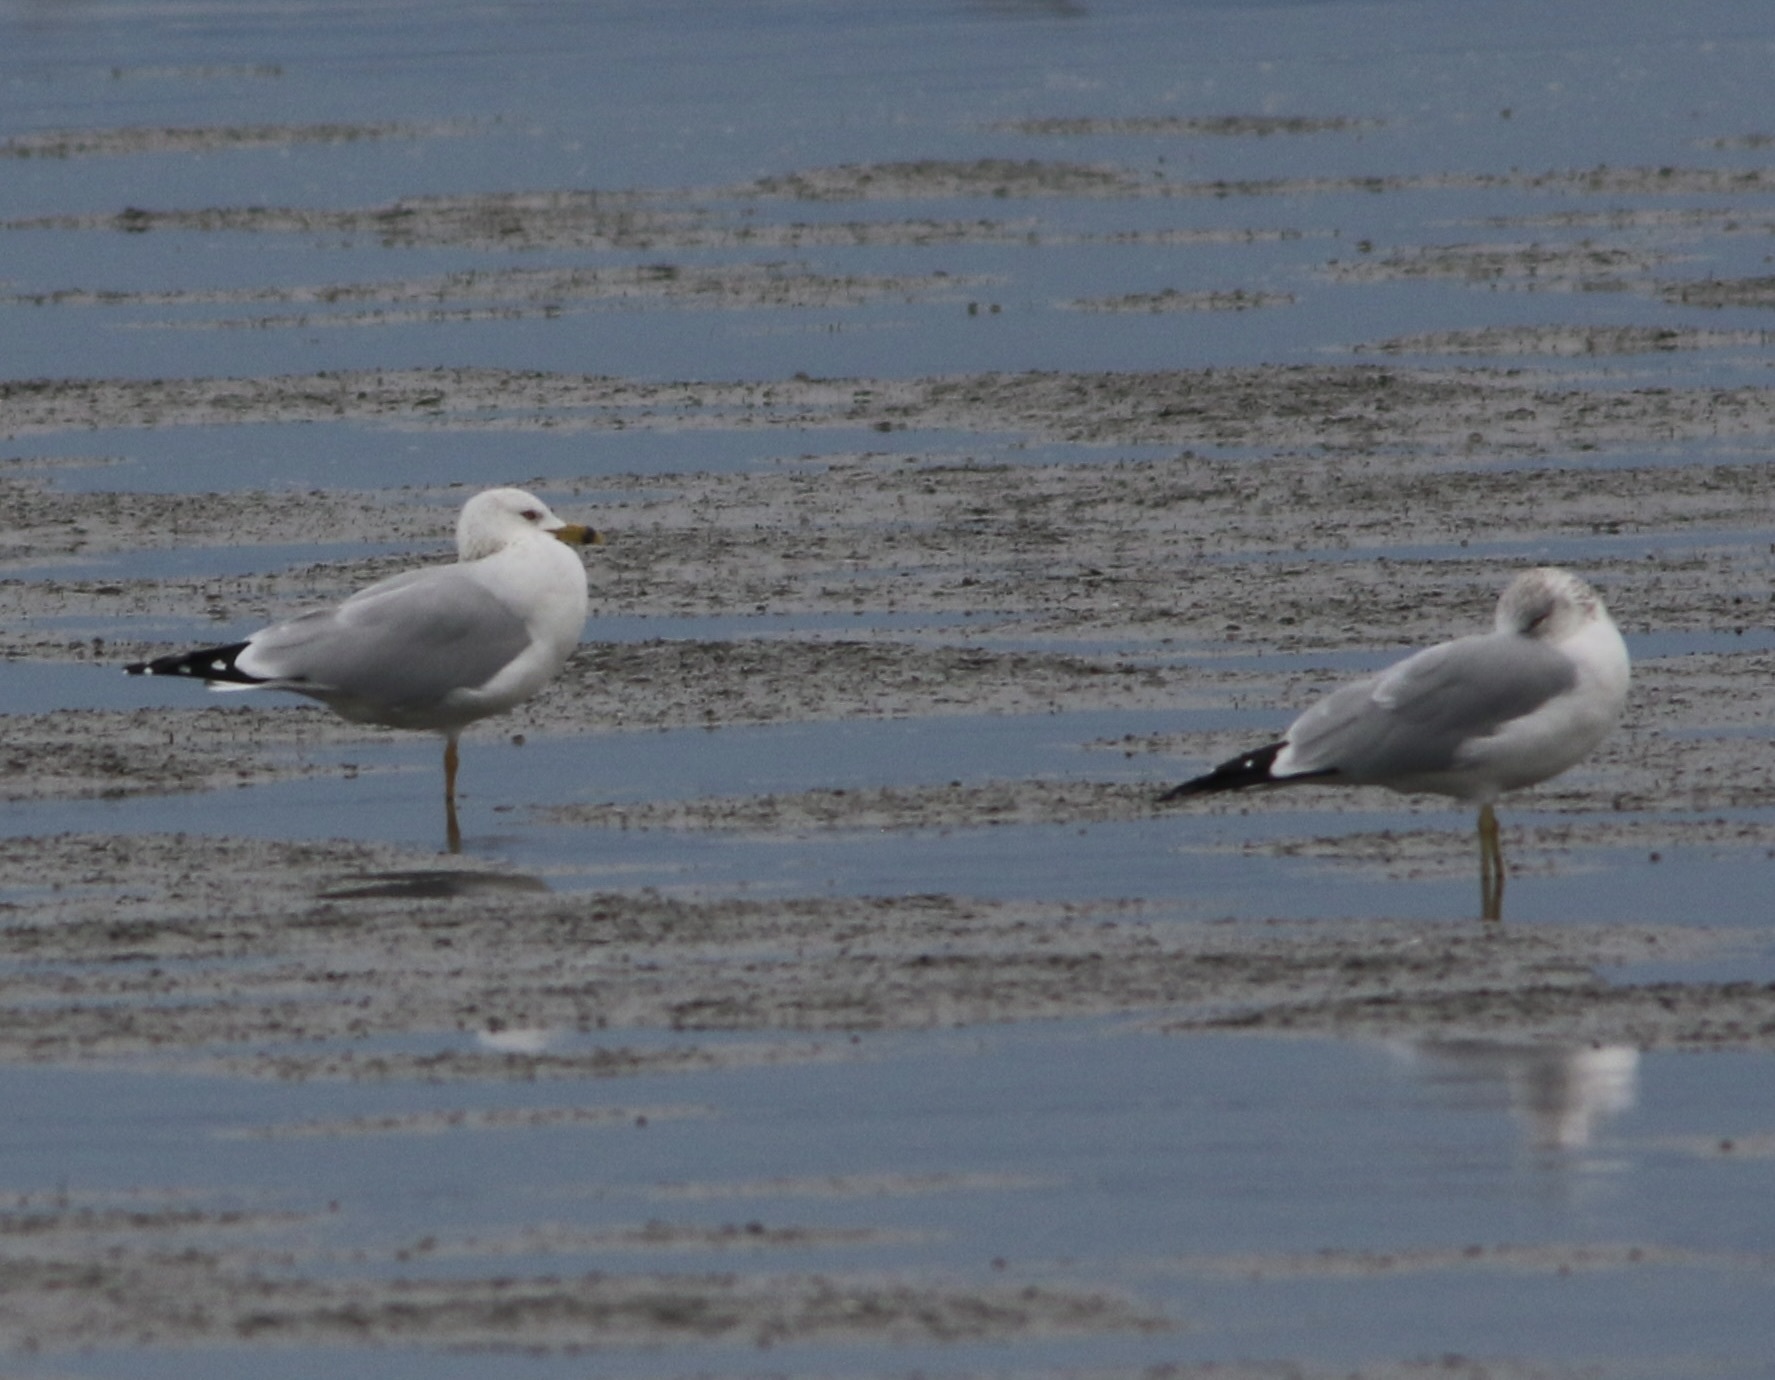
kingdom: Animalia
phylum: Chordata
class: Aves
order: Charadriiformes
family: Laridae
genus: Larus
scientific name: Larus delawarensis
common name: Ring-billed gull
